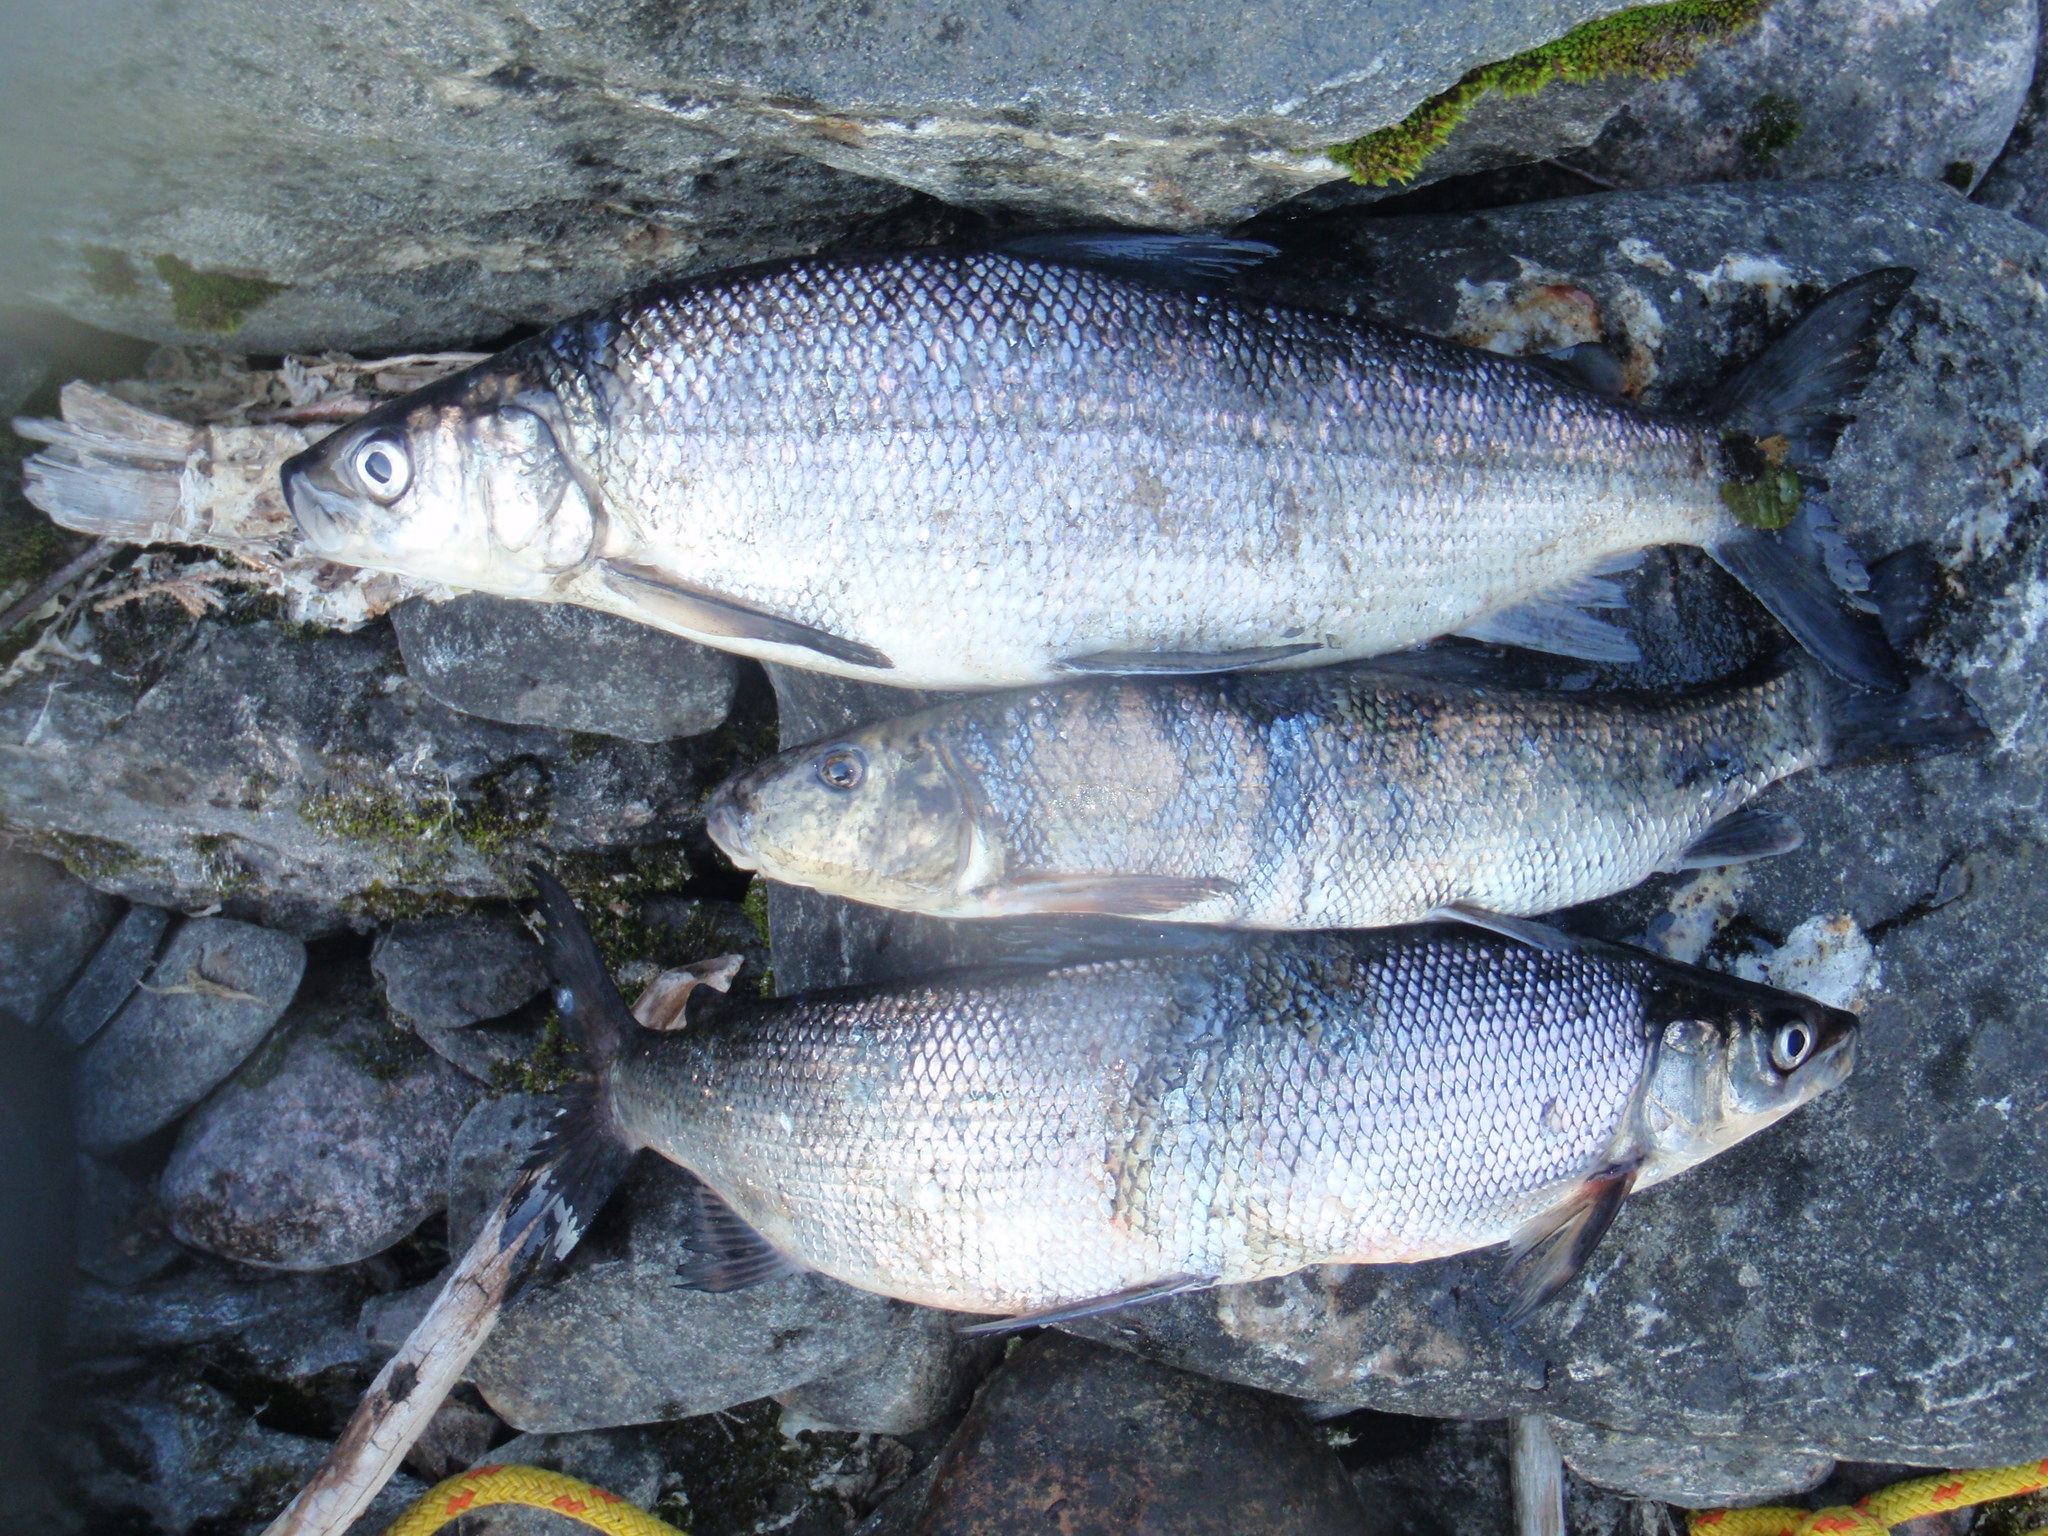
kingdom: Animalia
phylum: Chordata
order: Cypriniformes
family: Catostomidae
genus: Catostomus
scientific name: Catostomus commersonii
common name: White sucker
